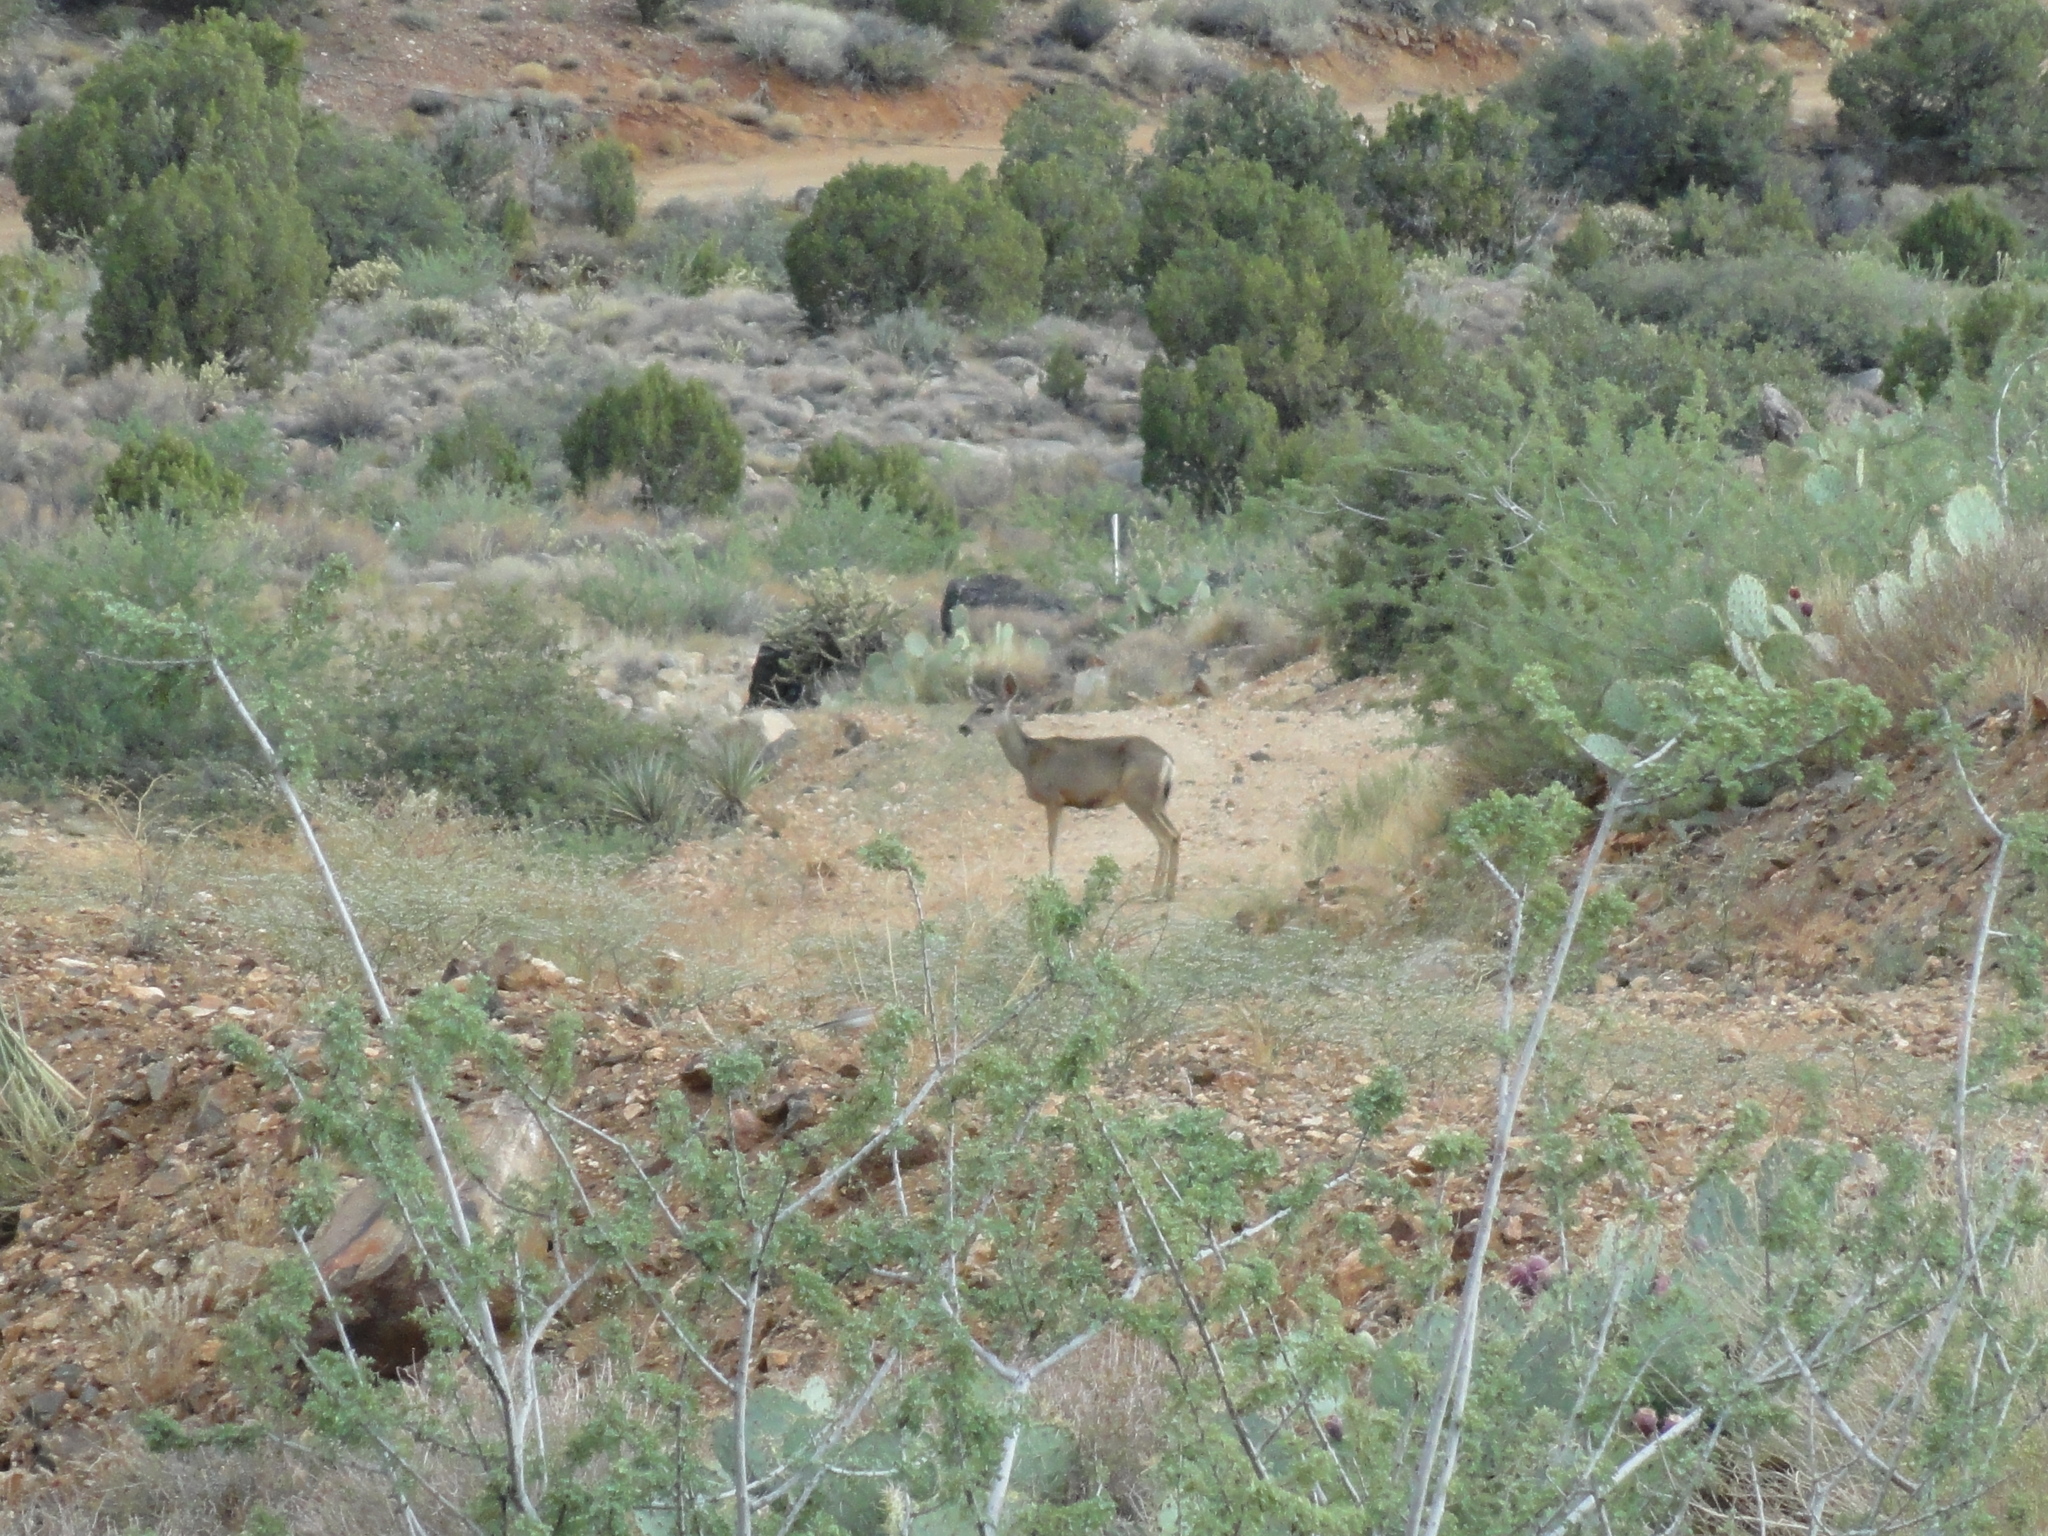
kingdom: Animalia
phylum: Chordata
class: Mammalia
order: Artiodactyla
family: Cervidae
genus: Odocoileus
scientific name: Odocoileus hemionus
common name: Mule deer
